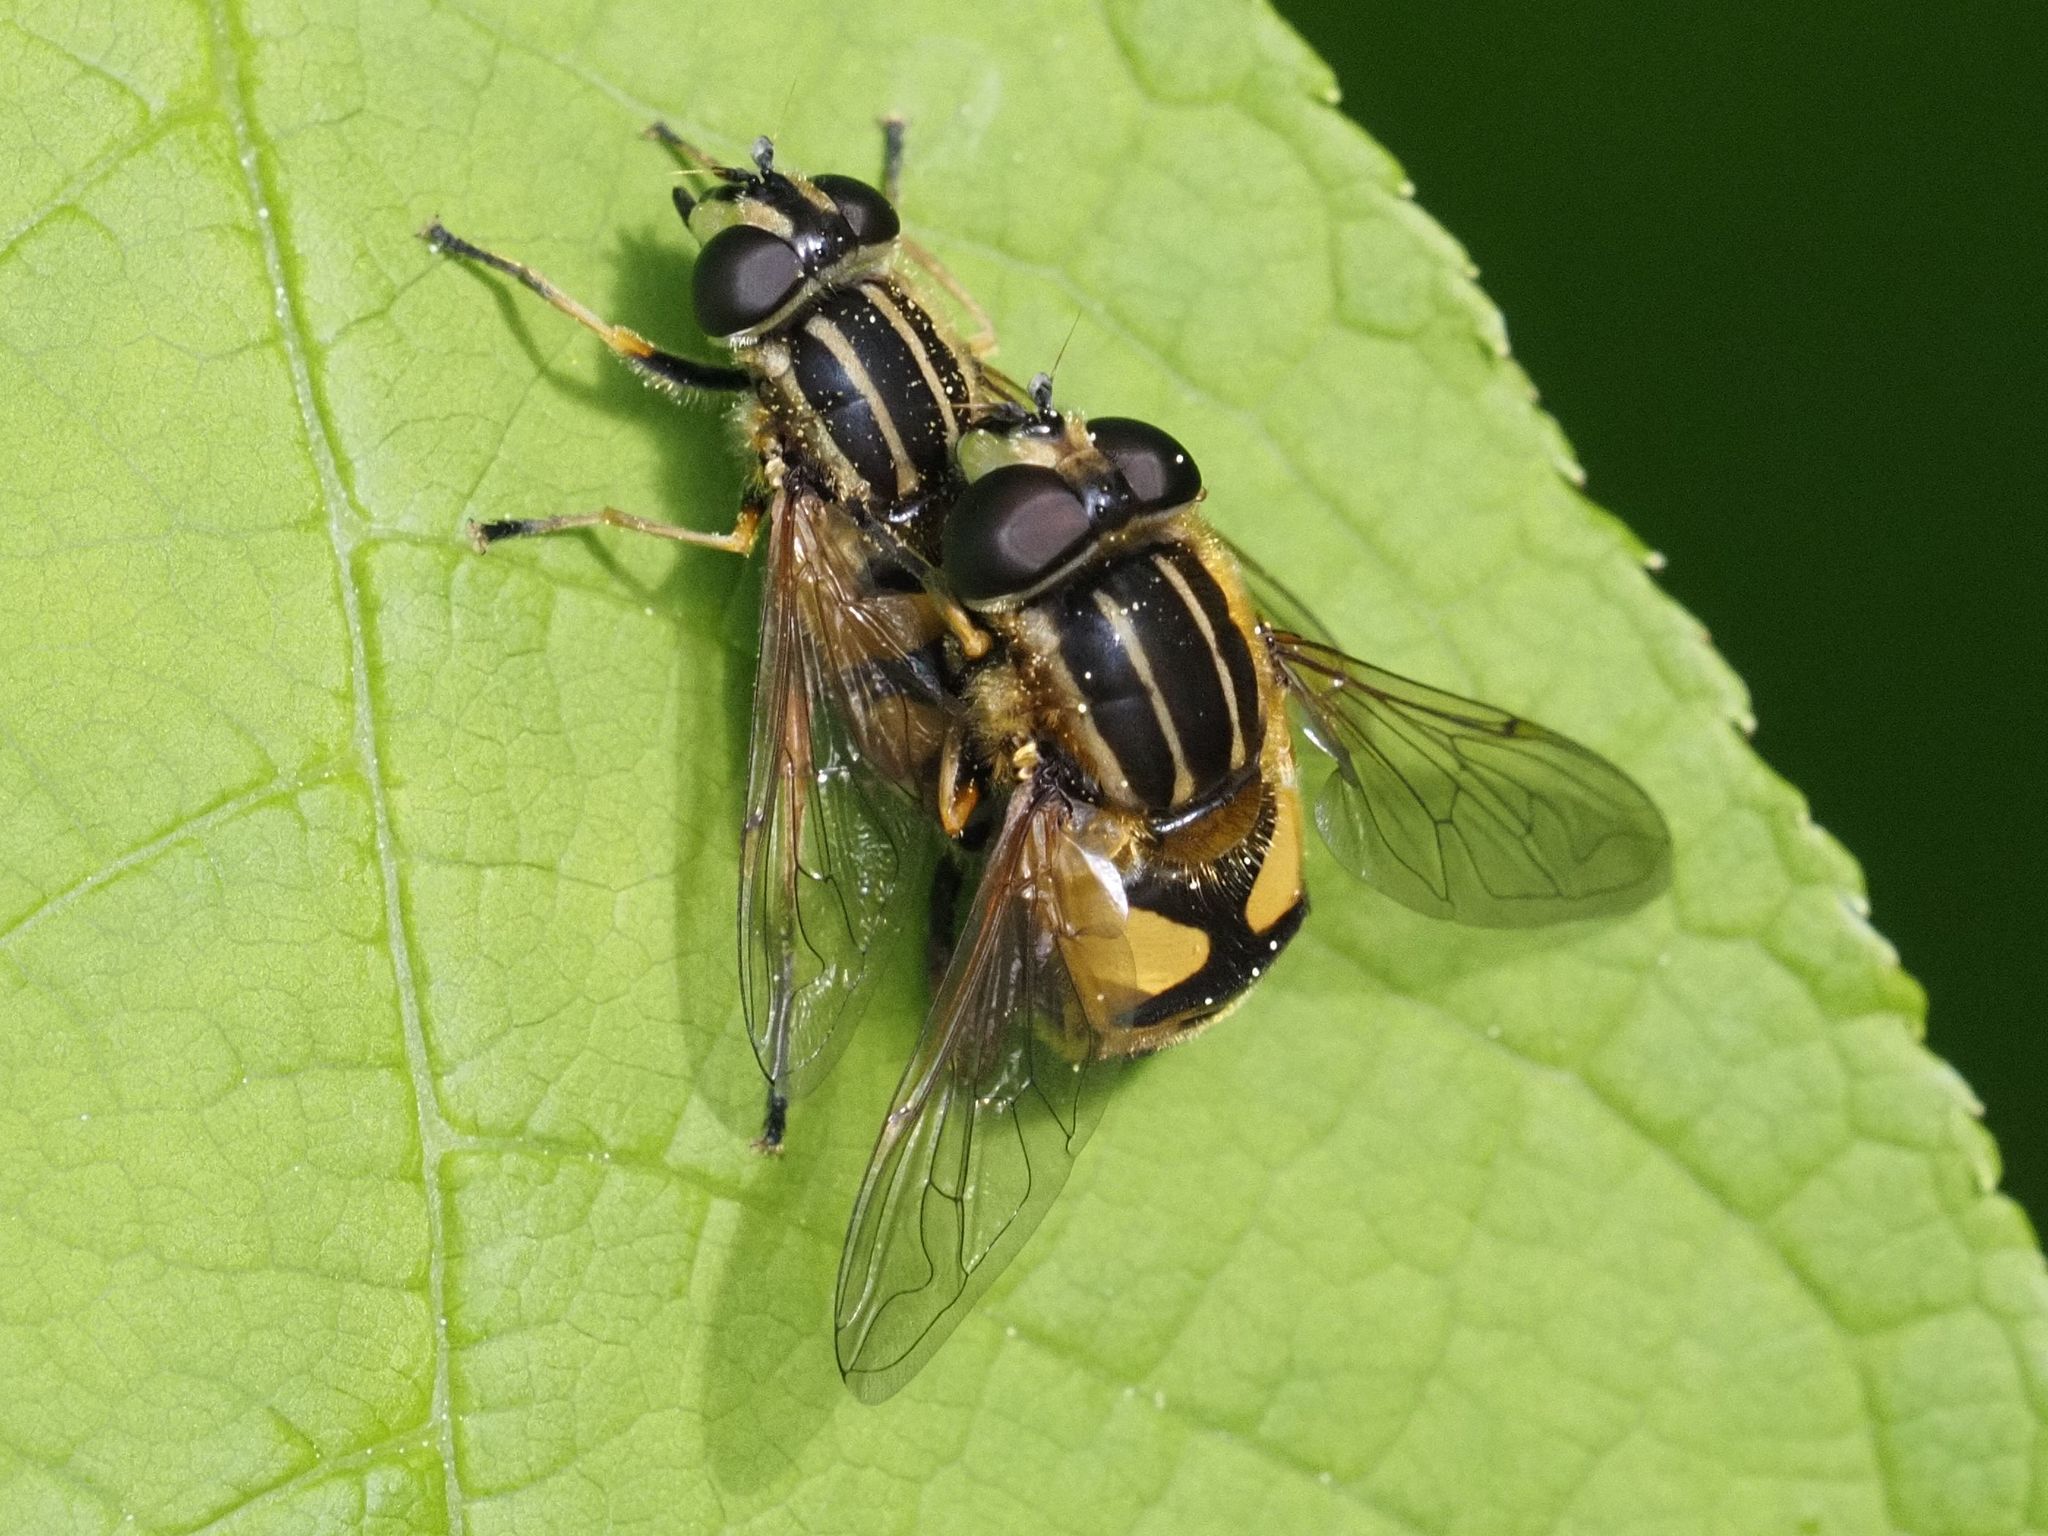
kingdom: Animalia
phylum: Arthropoda
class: Insecta
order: Diptera
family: Syrphidae
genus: Helophilus
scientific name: Helophilus pendulus
